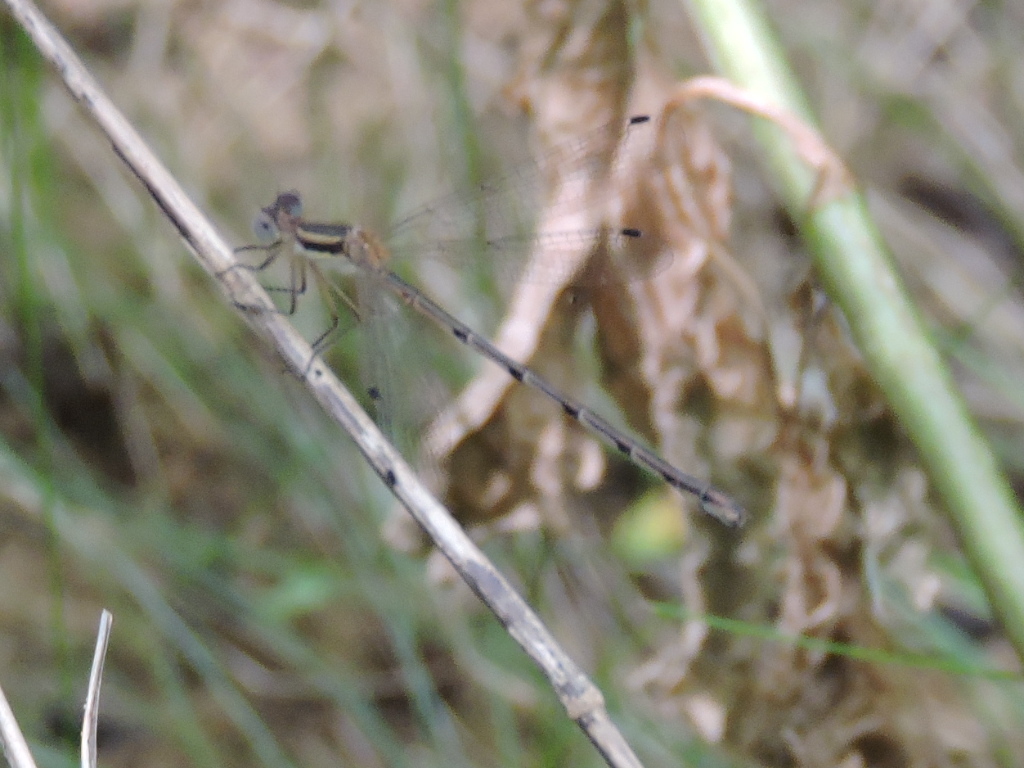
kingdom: Animalia
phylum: Arthropoda
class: Insecta
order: Odonata
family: Lestidae
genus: Lestes
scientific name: Lestes australis
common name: Southern spreadwing
